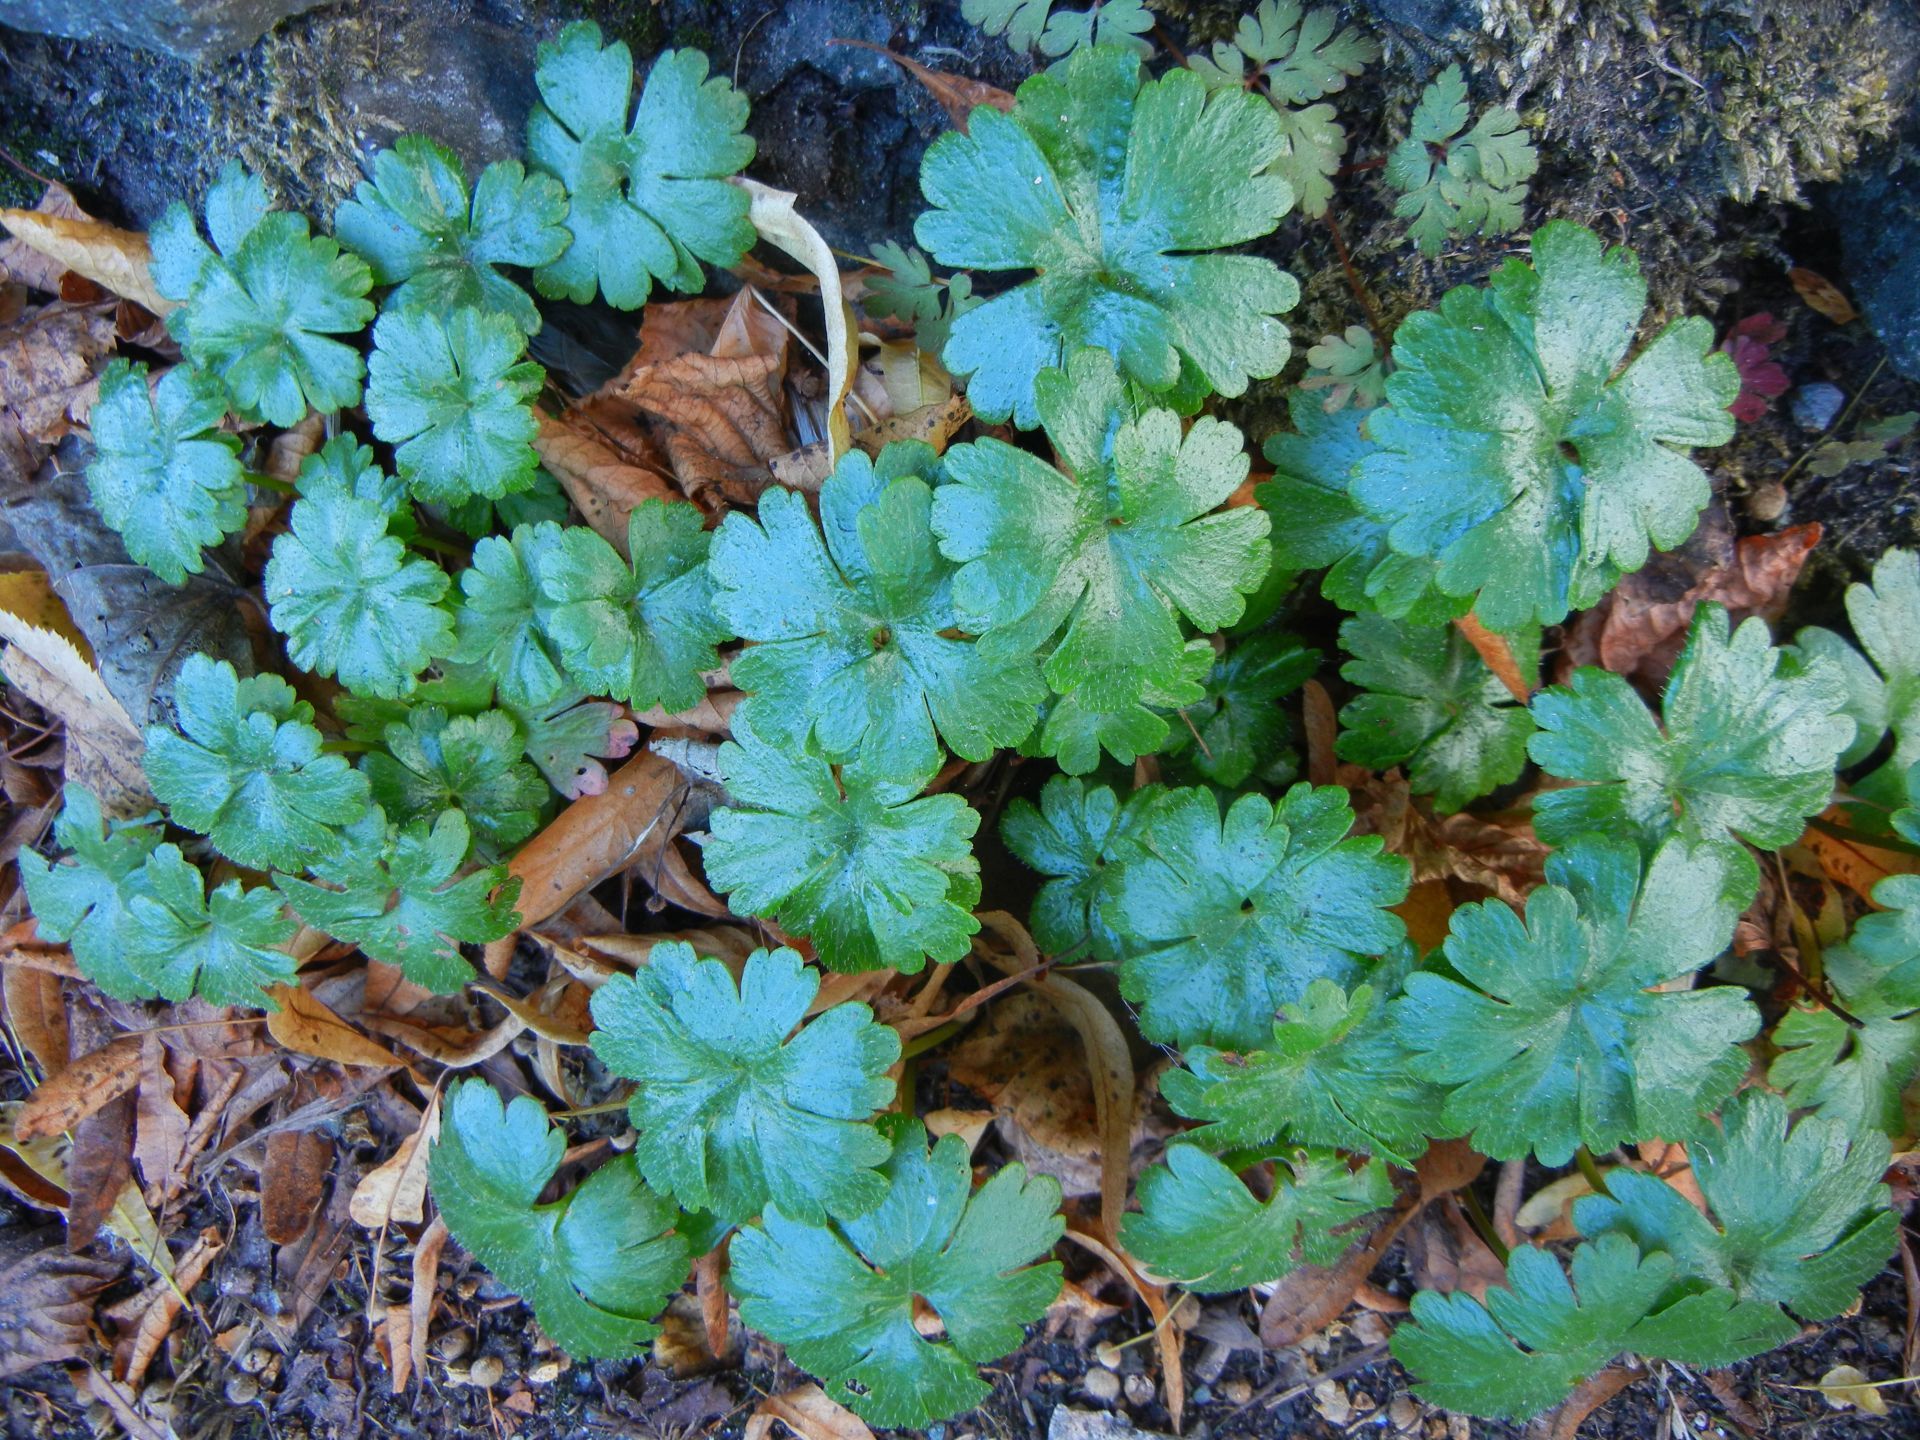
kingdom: Plantae
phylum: Tracheophyta
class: Magnoliopsida
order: Geraniales
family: Geraniaceae
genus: Geranium
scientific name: Geranium lucidum
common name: Shining crane's-bill
